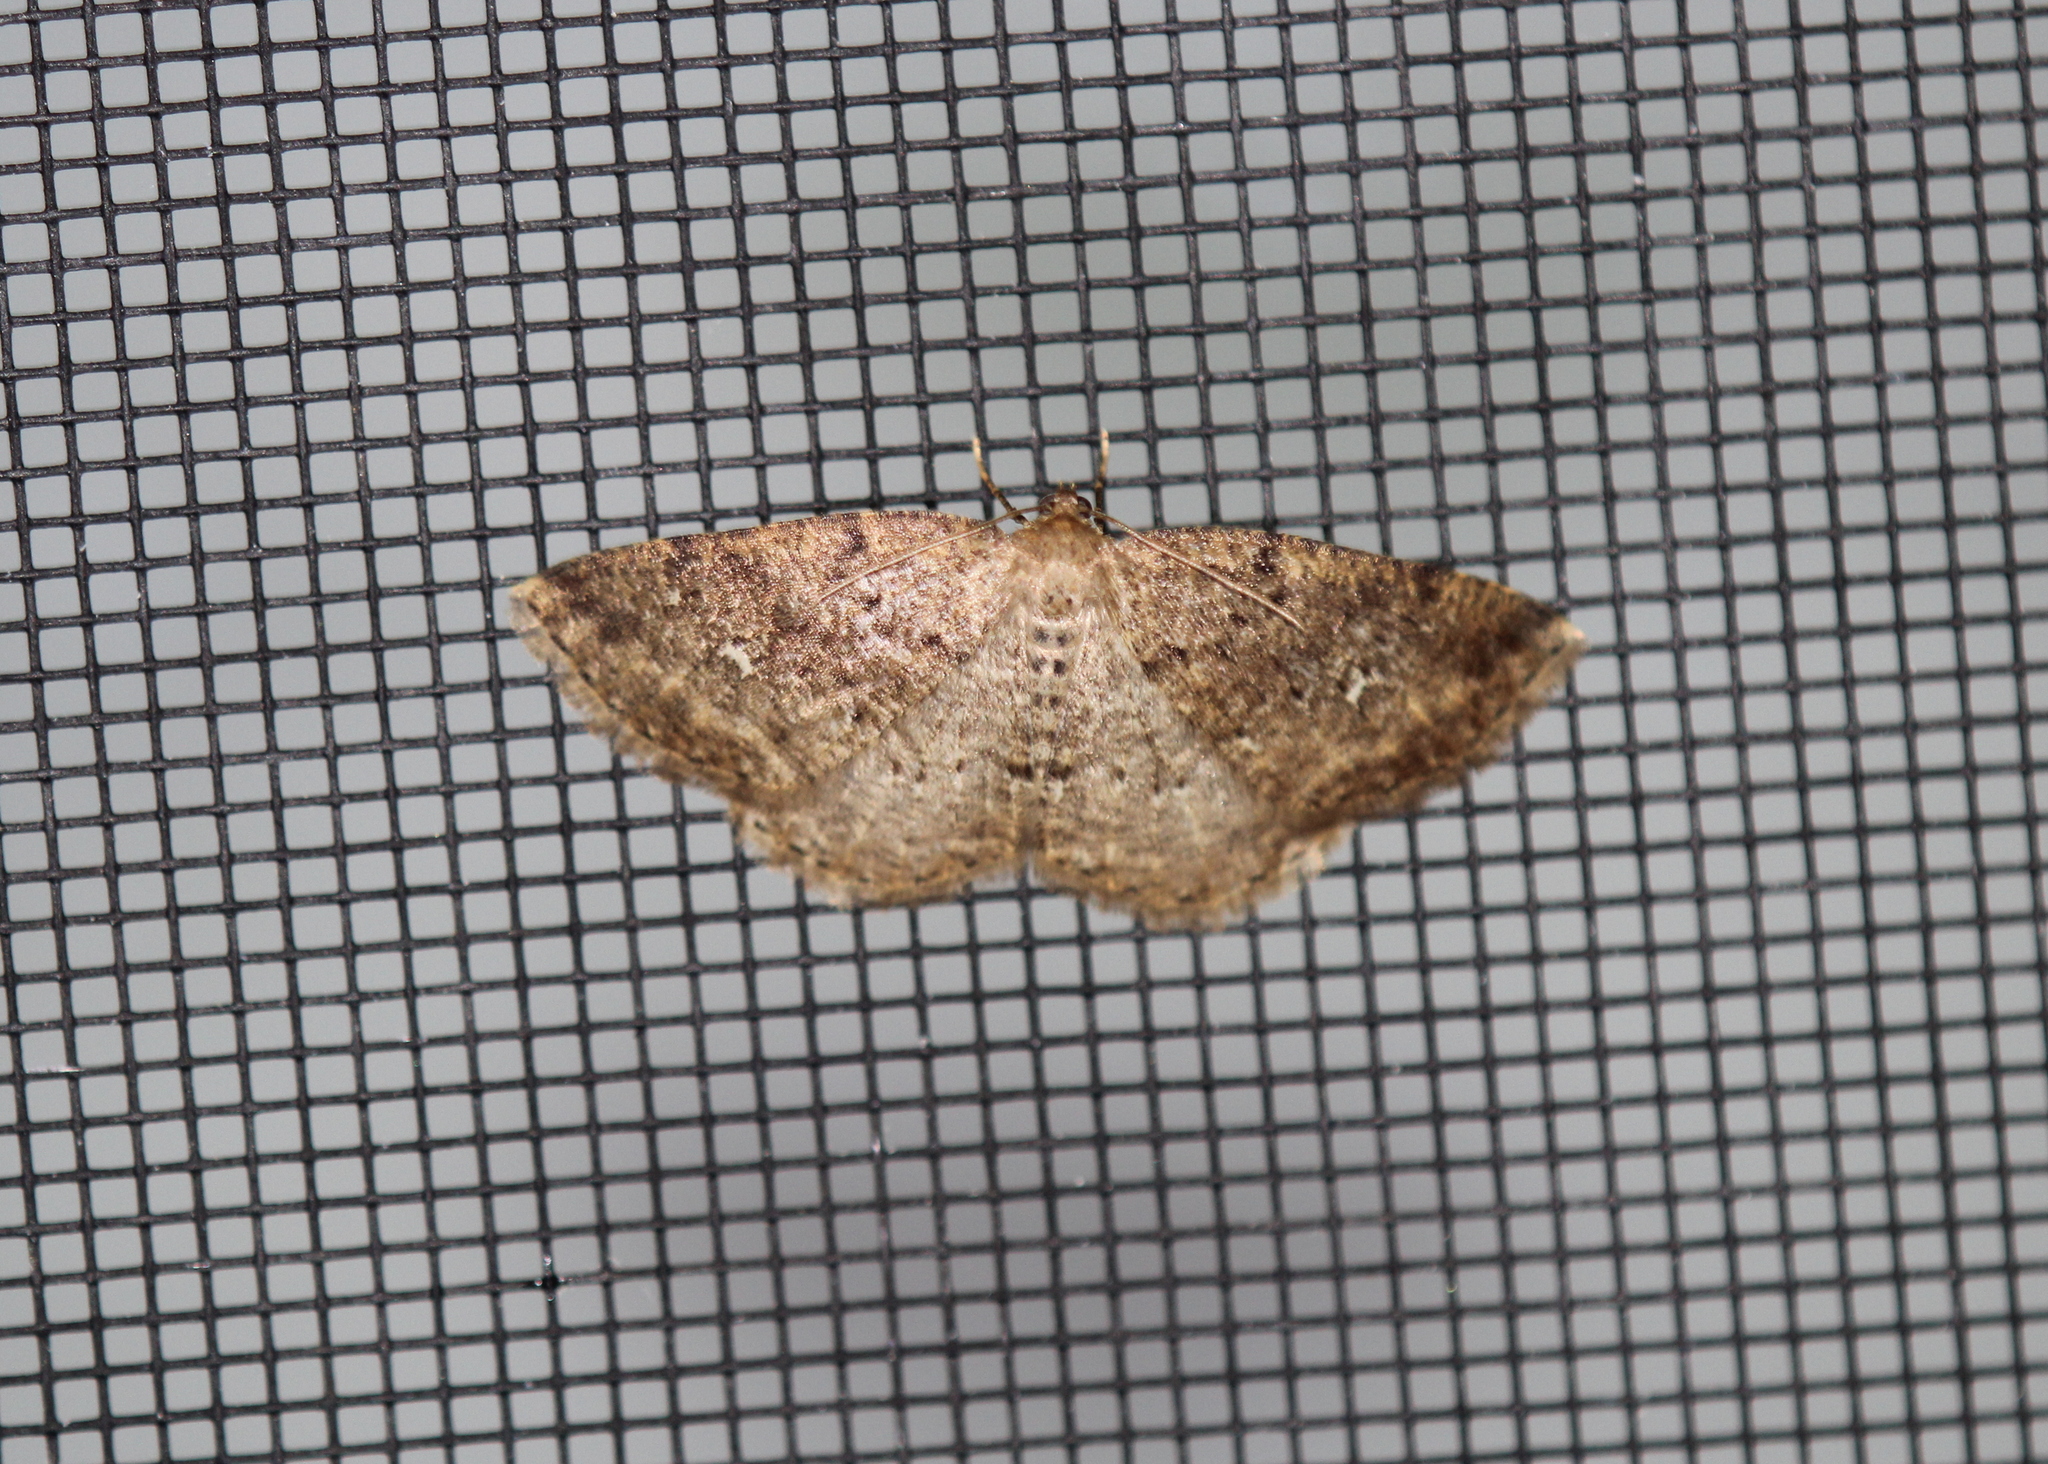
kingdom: Animalia
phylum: Arthropoda
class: Insecta
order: Lepidoptera
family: Geometridae
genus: Homochlodes
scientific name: Homochlodes fritillaria
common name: Pale homochlodes
